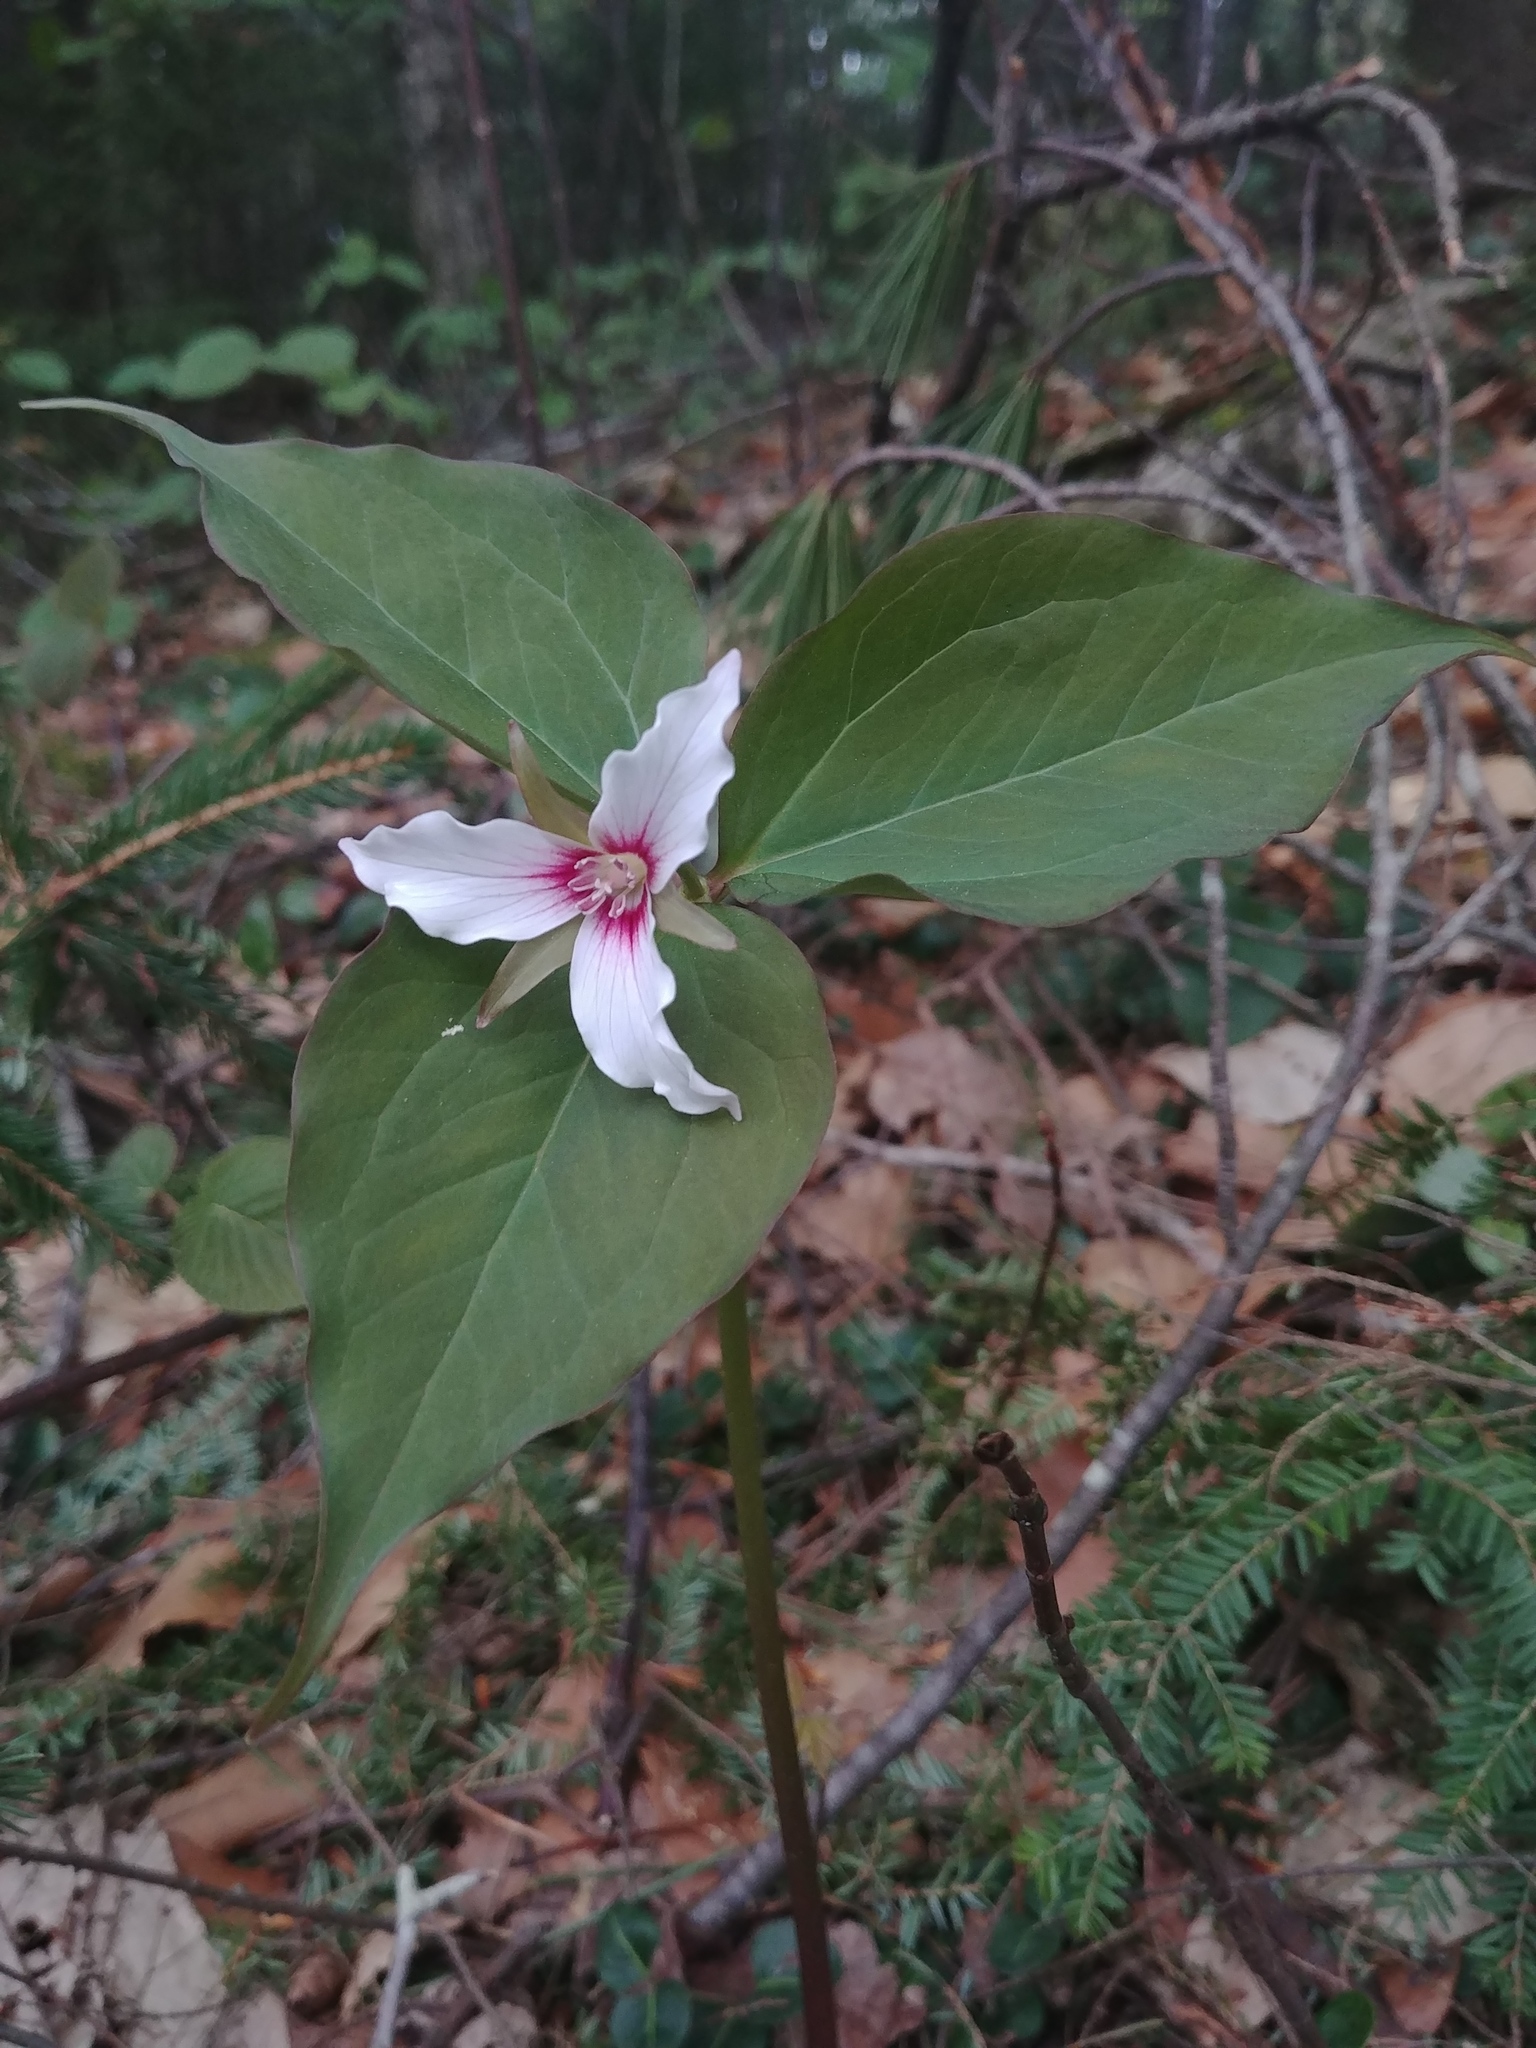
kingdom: Plantae
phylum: Tracheophyta
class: Liliopsida
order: Liliales
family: Melanthiaceae
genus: Trillium
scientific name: Trillium undulatum
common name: Paint trillium
